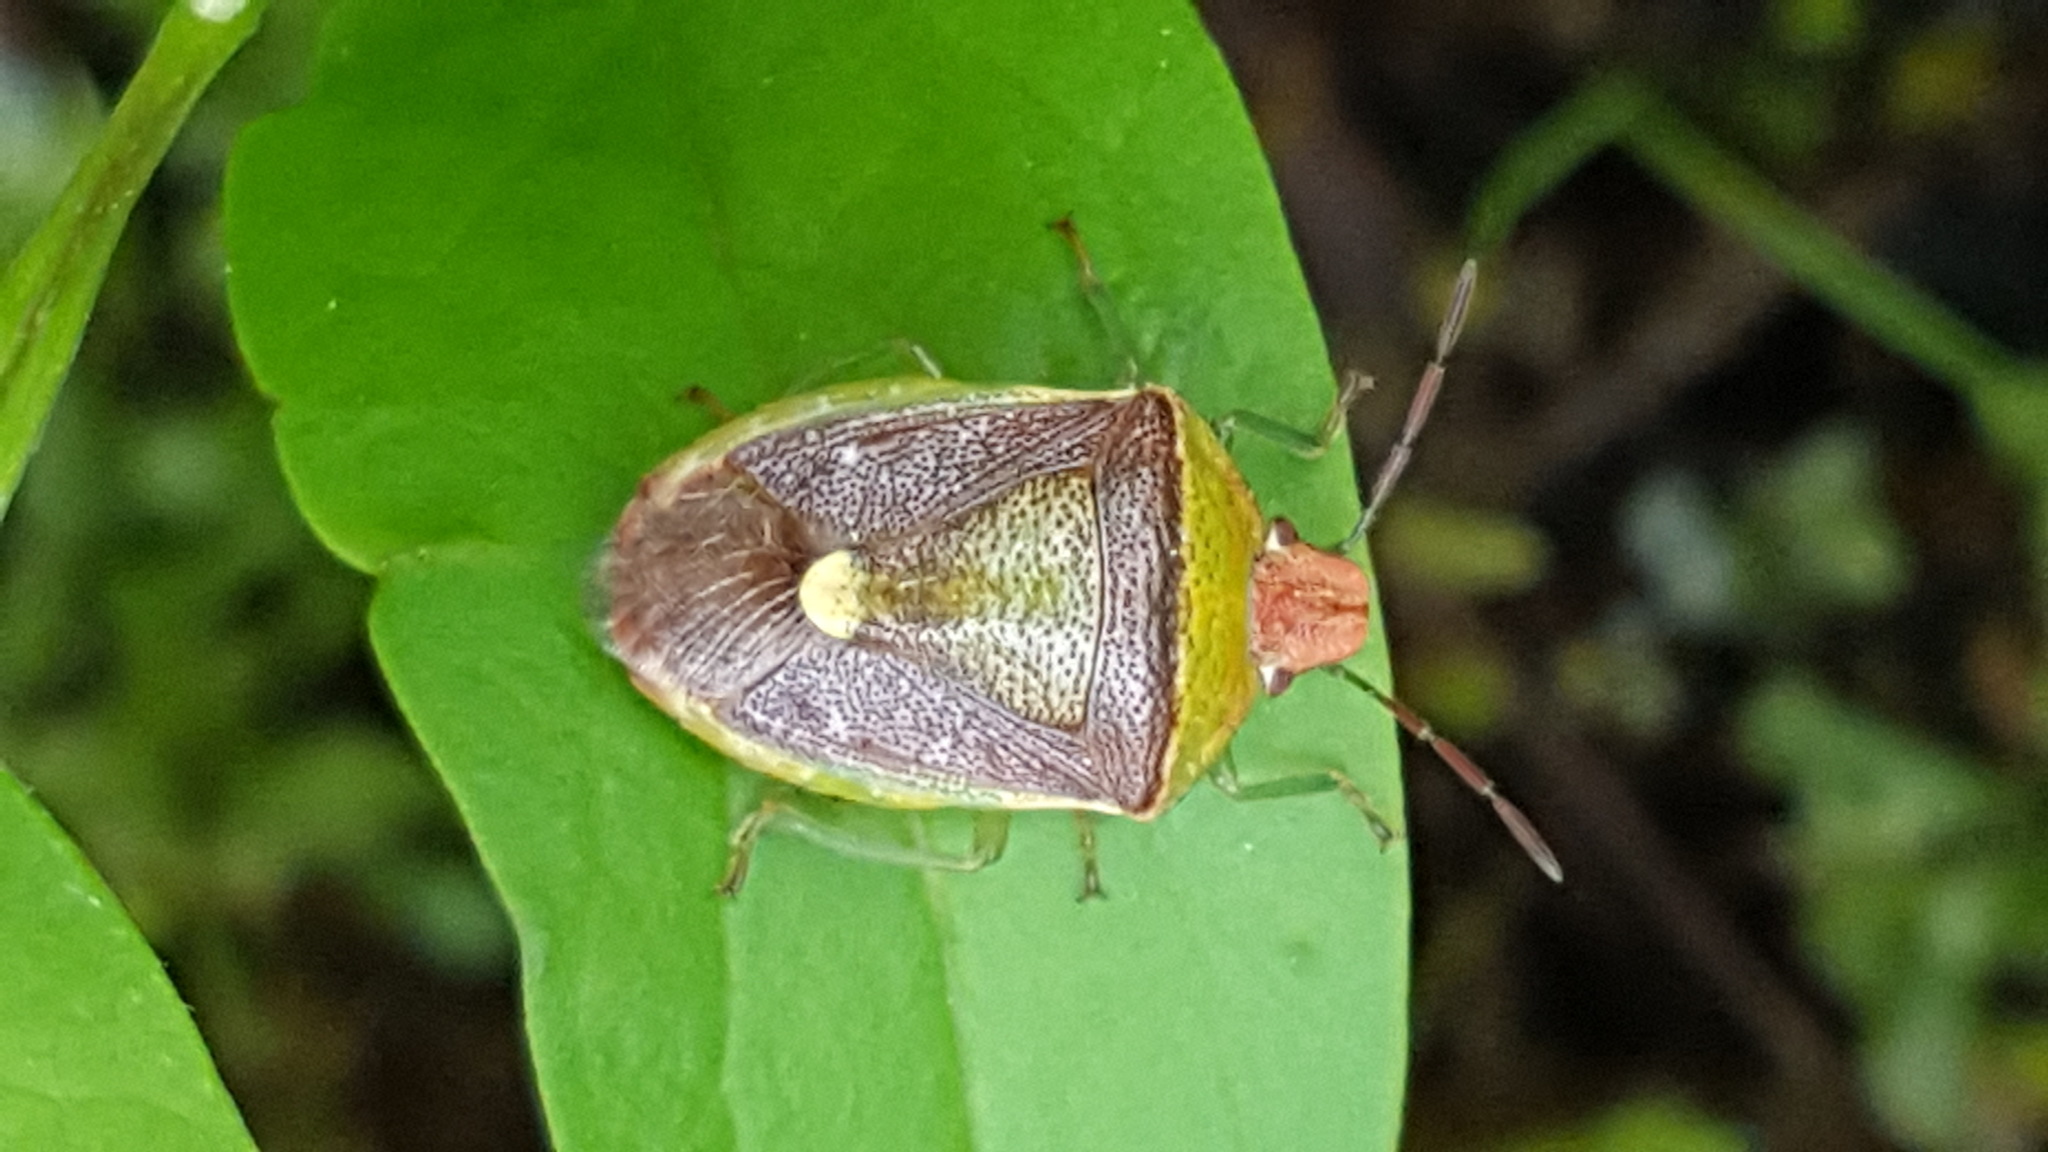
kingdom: Animalia
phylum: Arthropoda
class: Insecta
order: Hemiptera
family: Pentatomidae
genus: Banasa
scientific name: Banasa dimidiata
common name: Green burgundy stink bug
